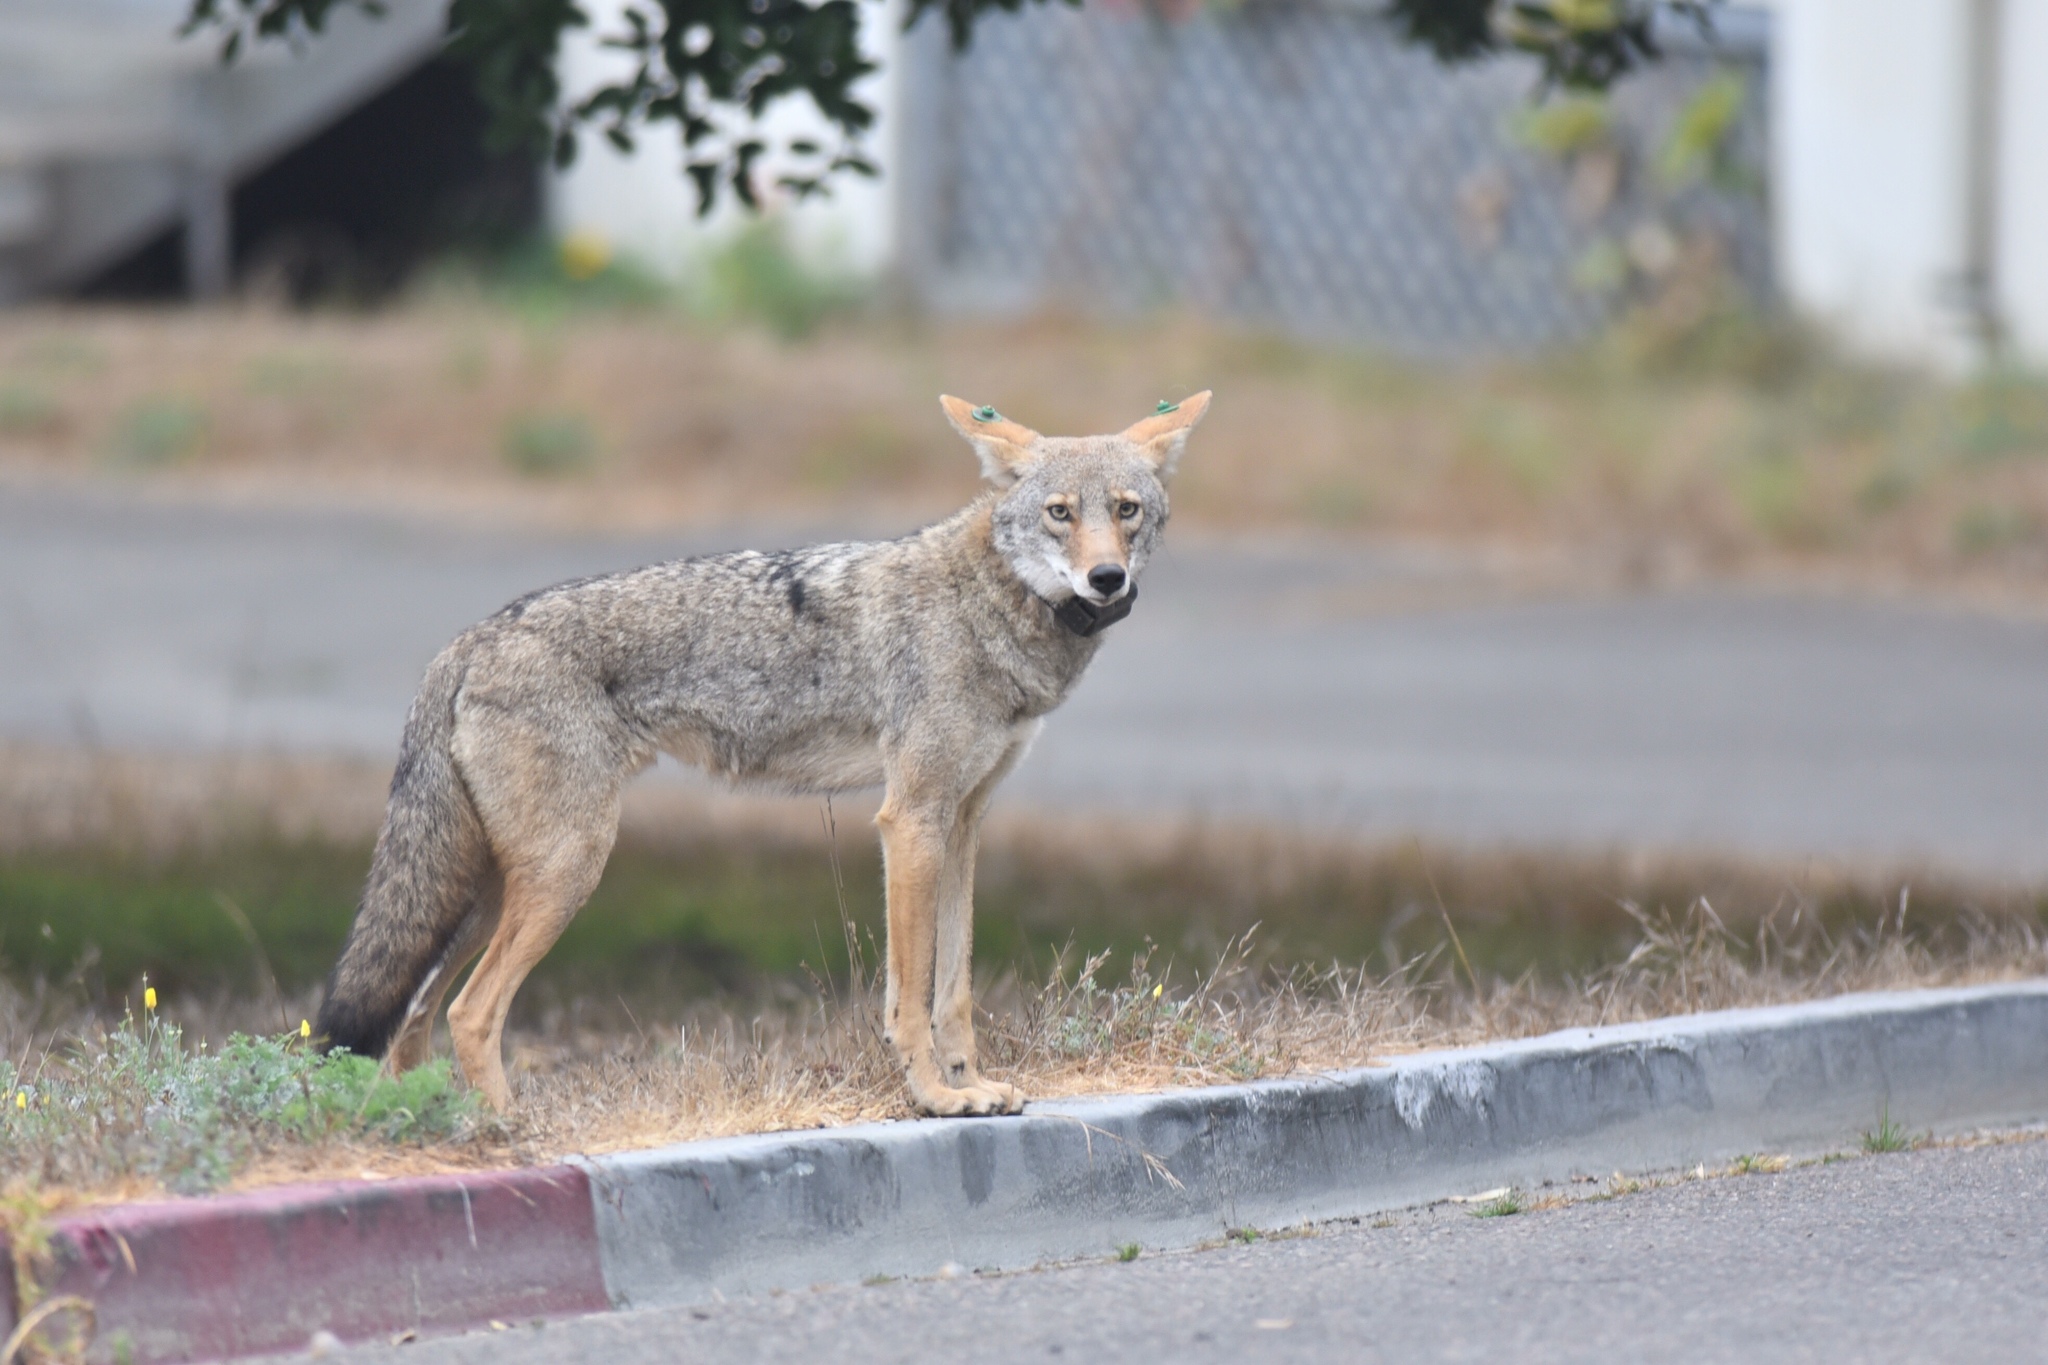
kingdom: Animalia
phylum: Chordata
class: Mammalia
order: Carnivora
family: Canidae
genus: Canis
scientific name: Canis latrans
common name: Coyote
